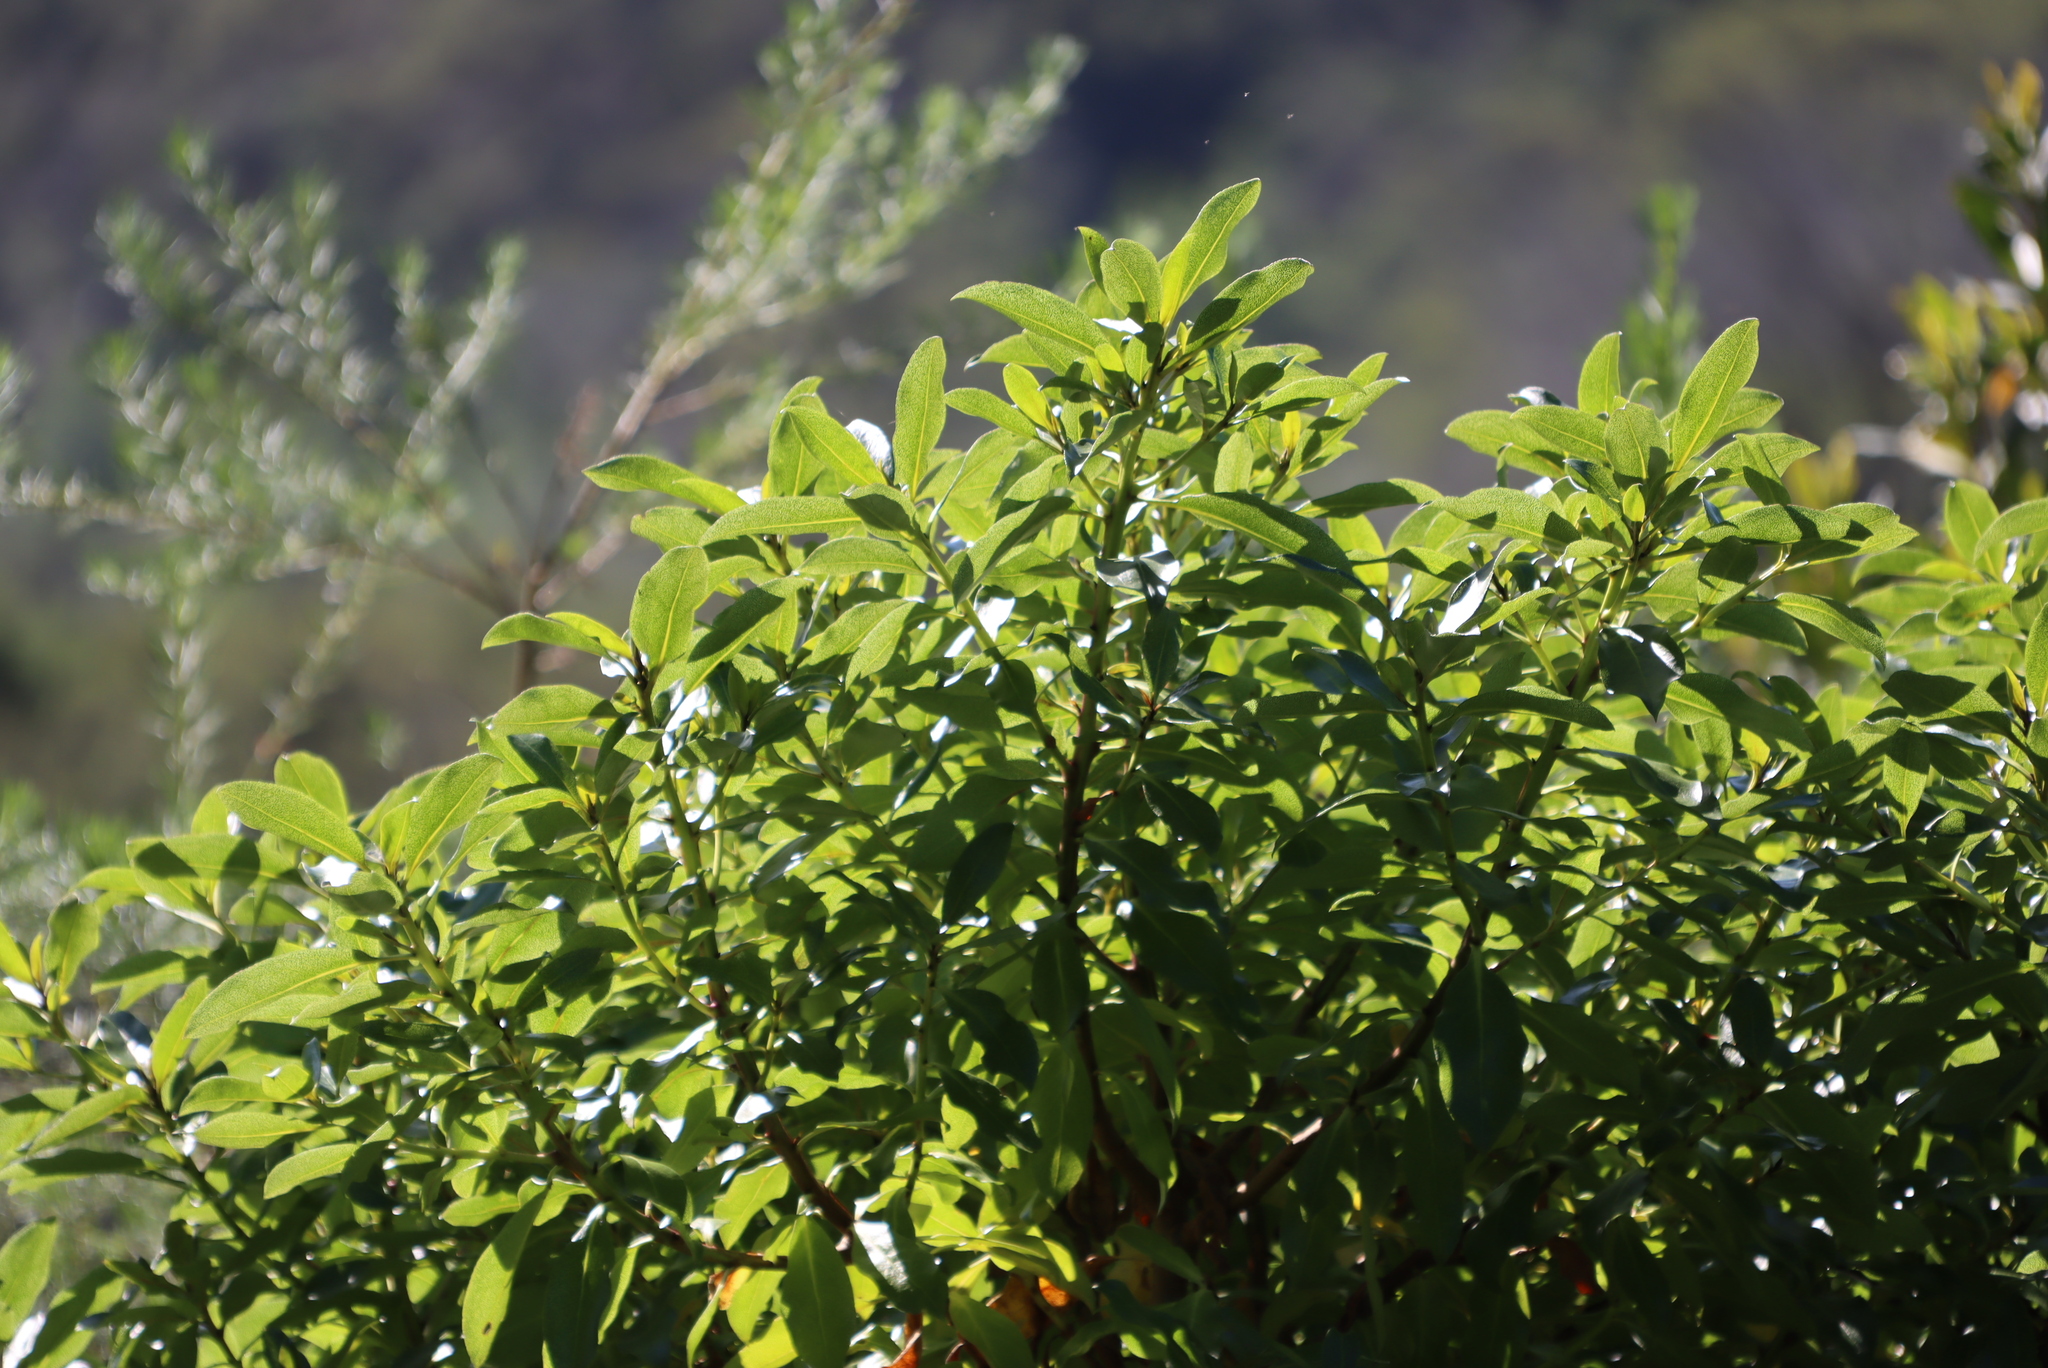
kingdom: Plantae
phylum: Tracheophyta
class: Magnoliopsida
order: Lamiales
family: Scrophulariaceae
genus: Myoporum
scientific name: Myoporum laetum
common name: Ngaio tree
